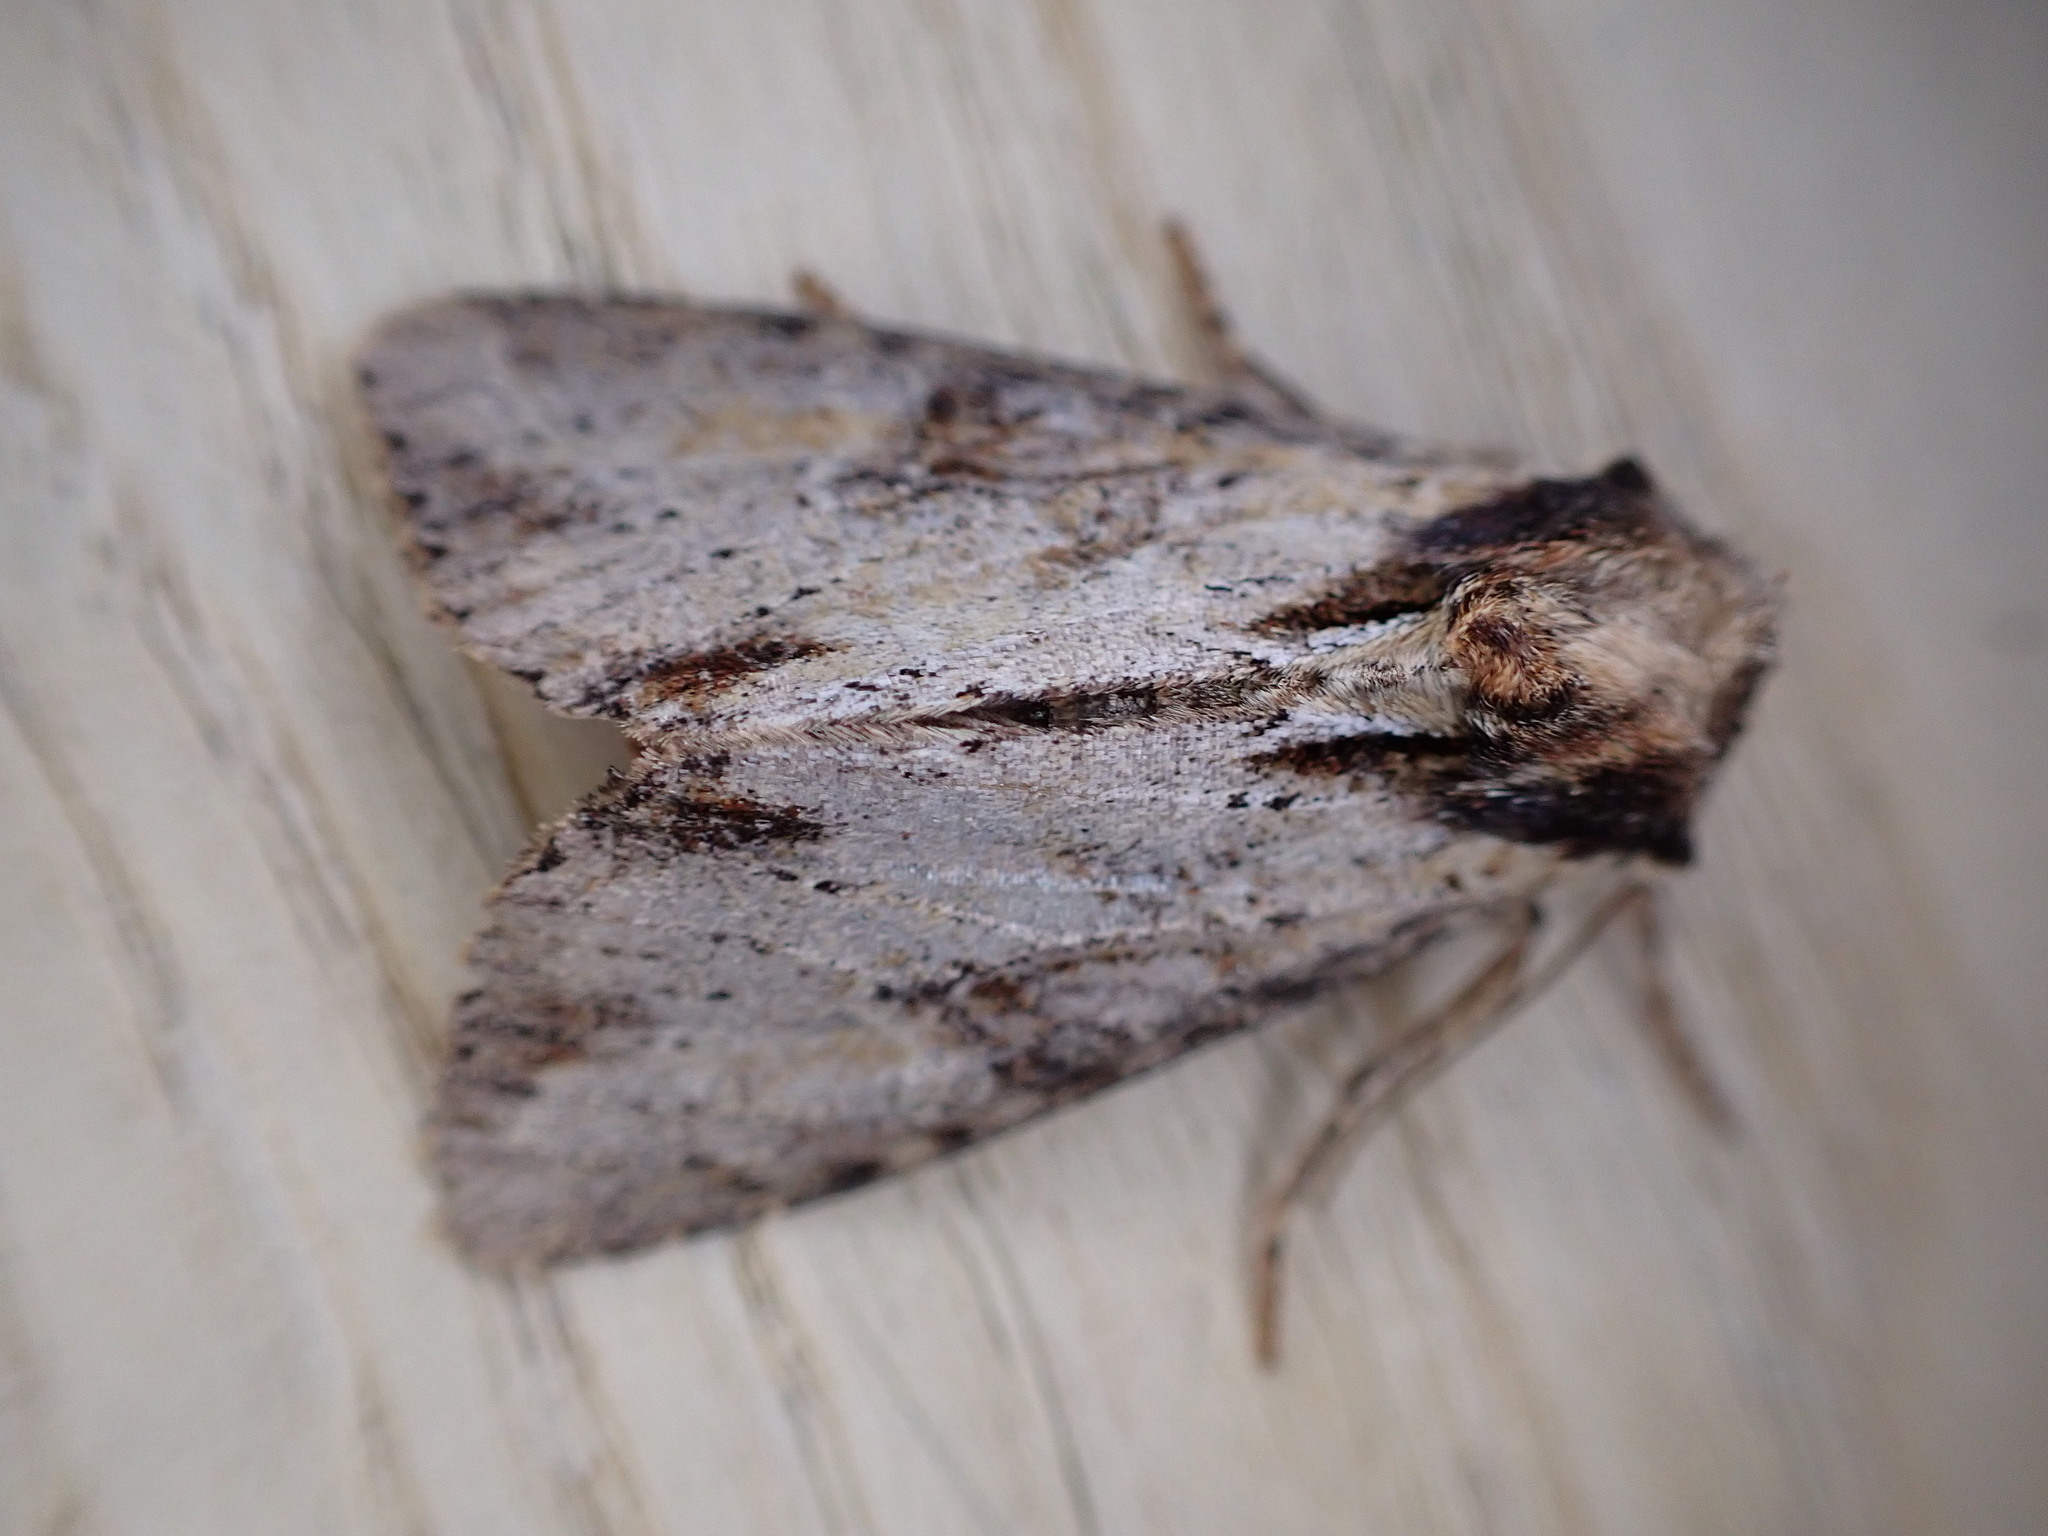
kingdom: Animalia
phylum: Arthropoda
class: Insecta
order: Lepidoptera
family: Noctuidae
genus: Apamea
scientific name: Apamea crenata
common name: Clouded-bordered brindle
